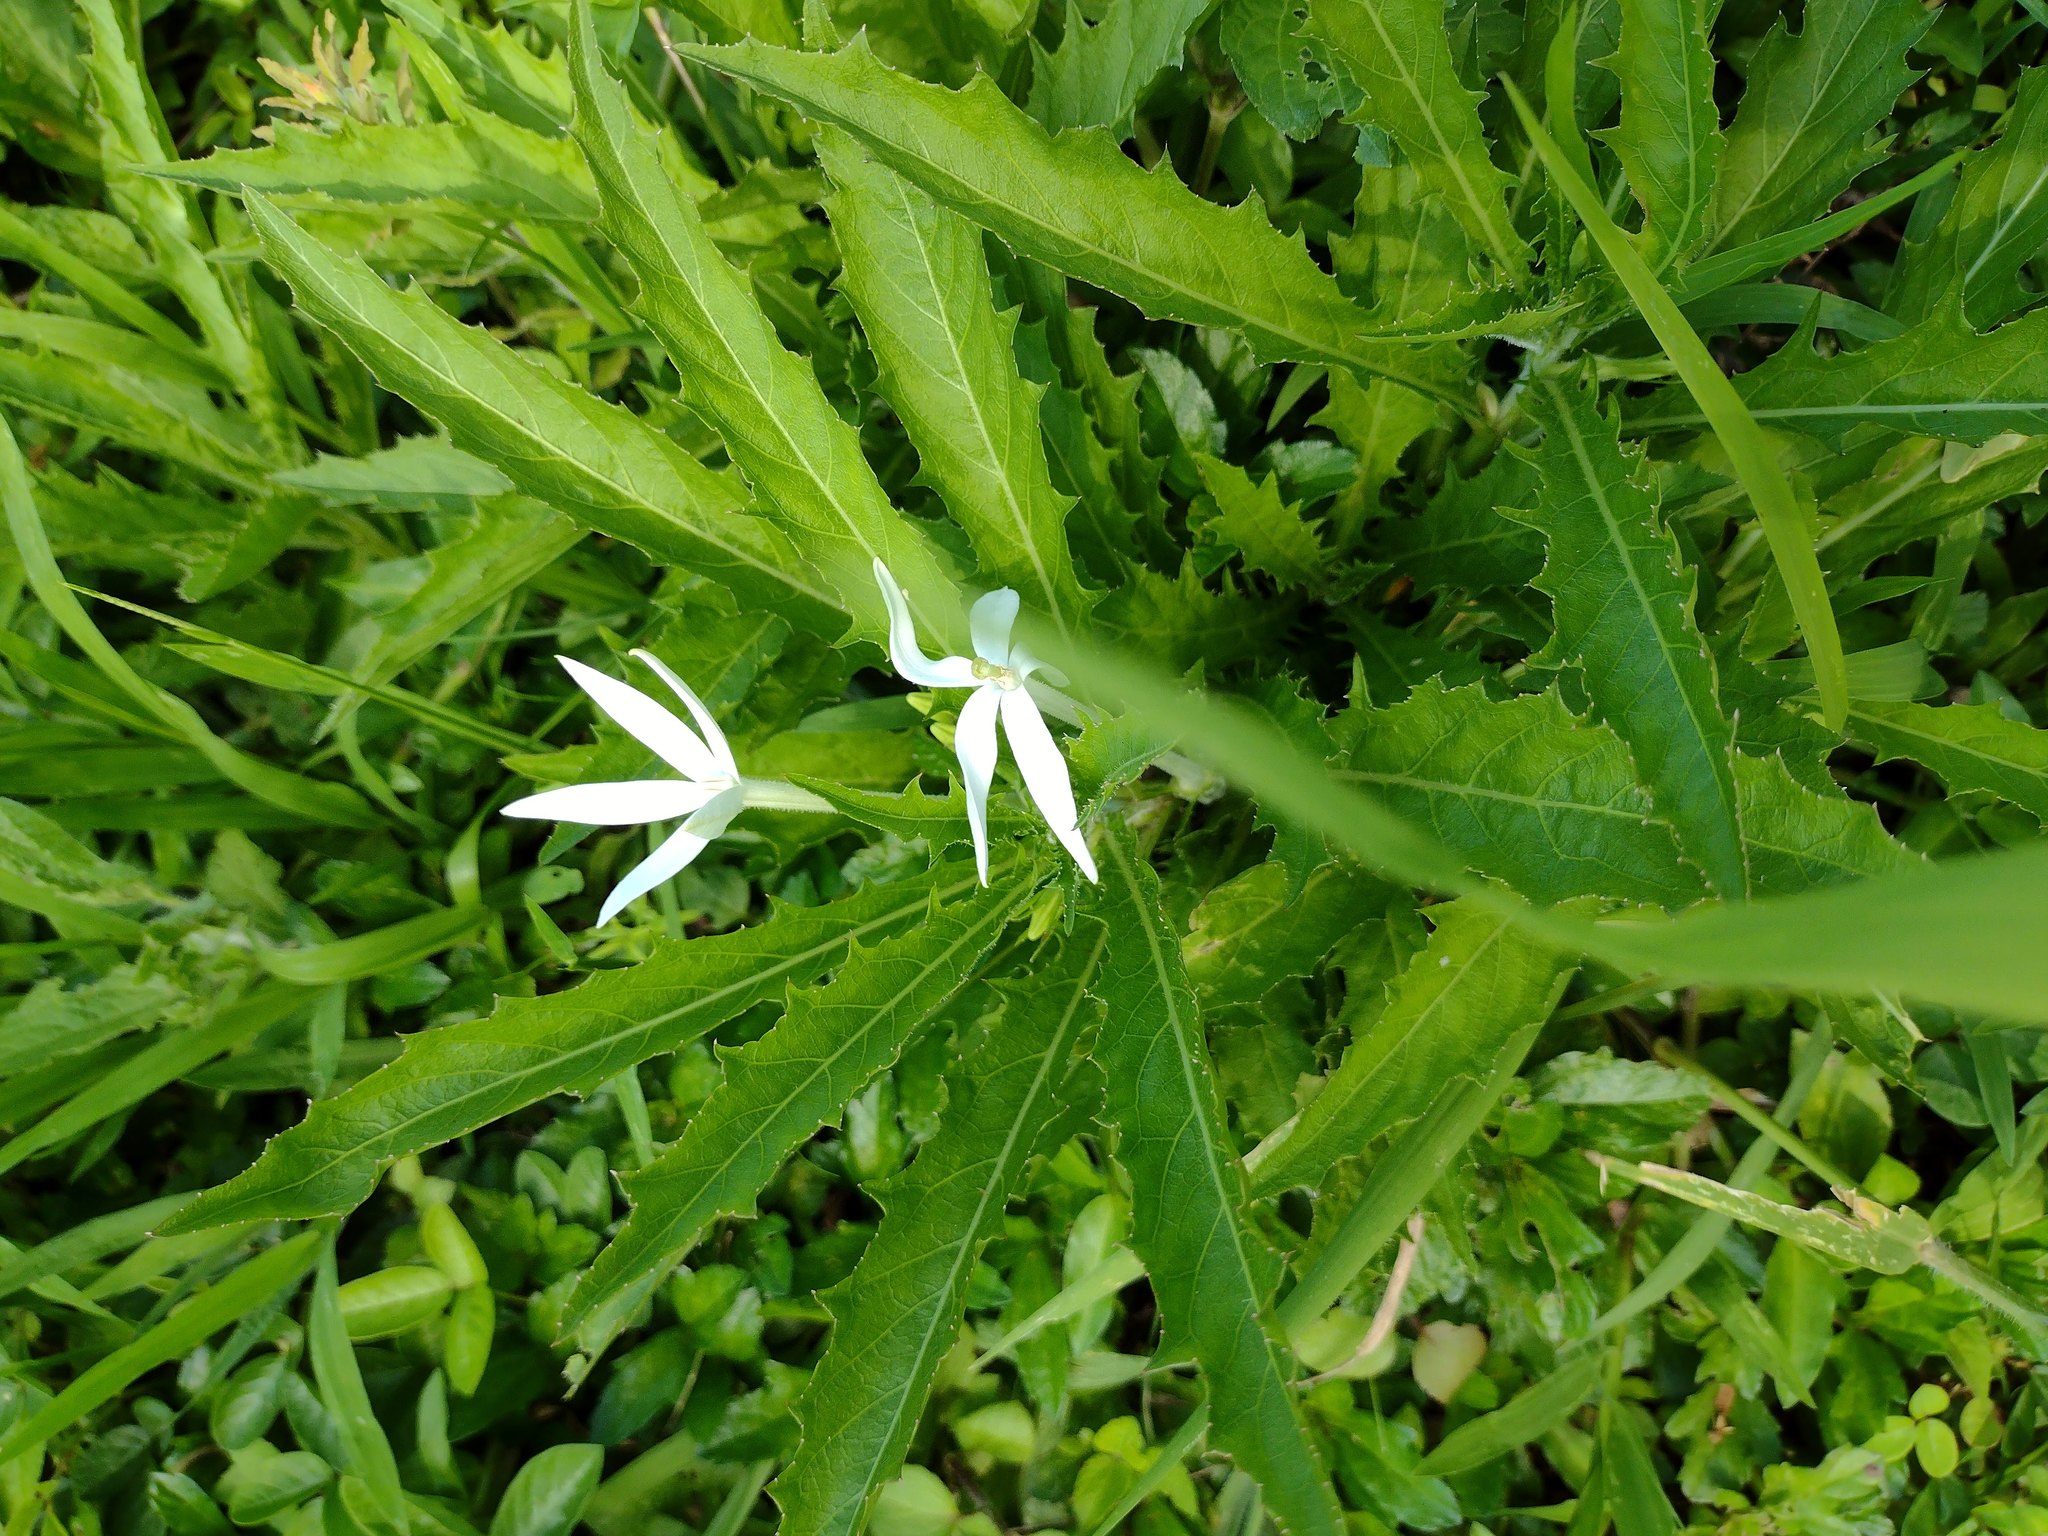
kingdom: Plantae
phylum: Tracheophyta
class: Magnoliopsida
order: Asterales
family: Campanulaceae
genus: Hippobroma
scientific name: Hippobroma longiflora
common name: Madamfate
